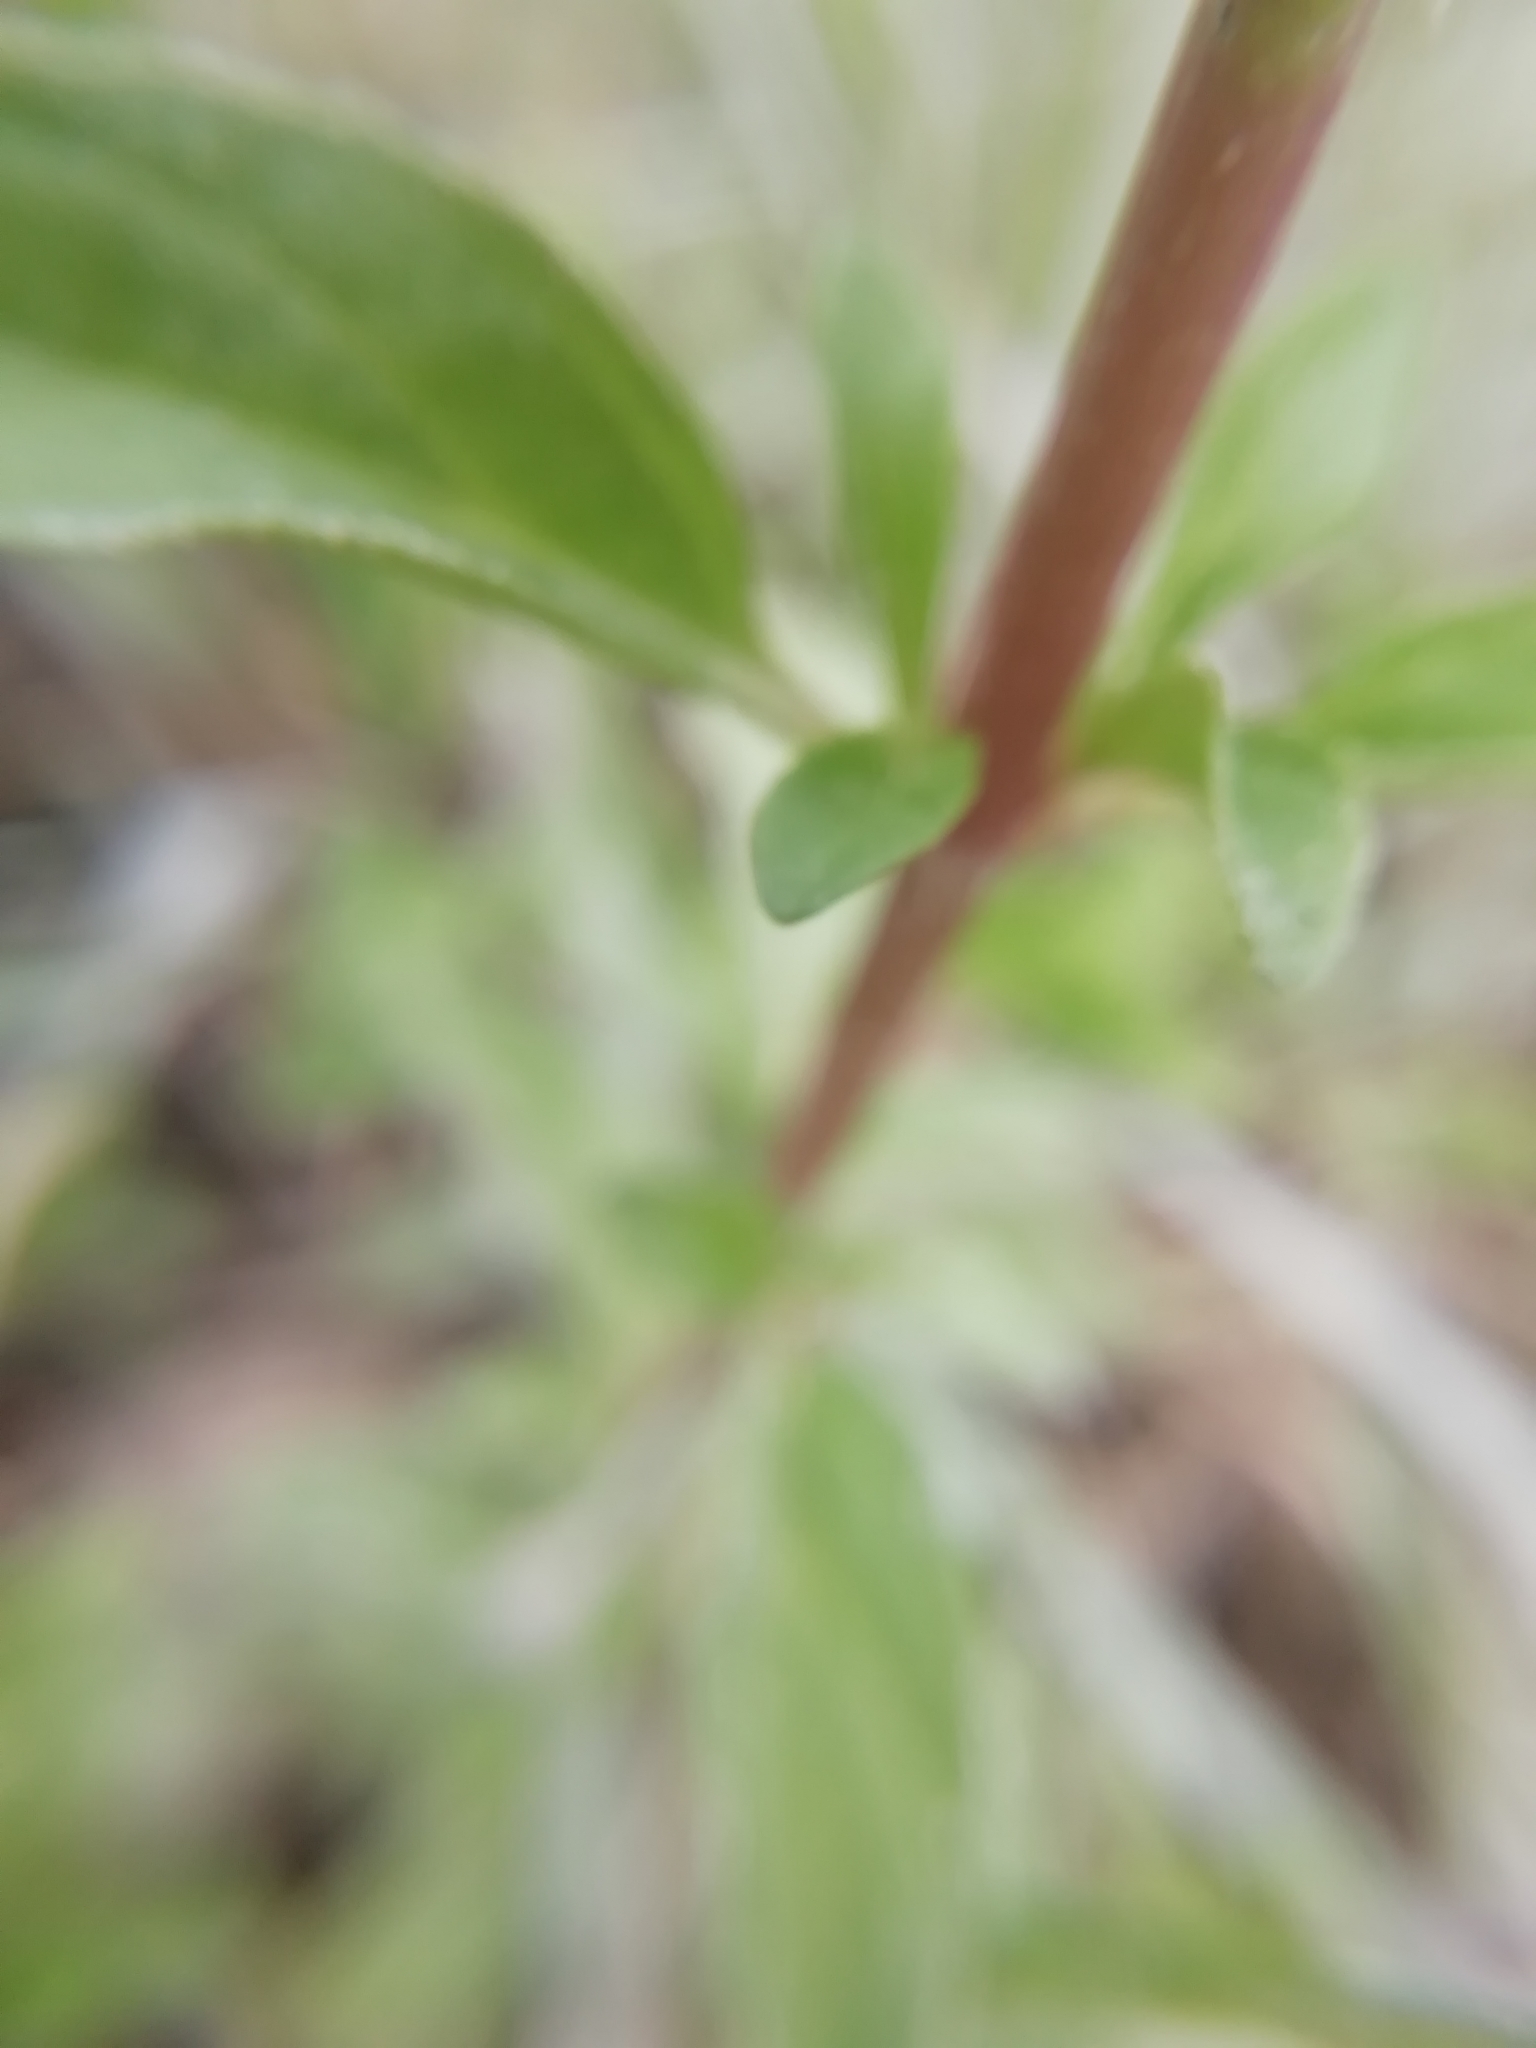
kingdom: Plantae
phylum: Tracheophyta
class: Magnoliopsida
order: Lamiales
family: Lamiaceae
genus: Mentha
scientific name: Mentha cervina
